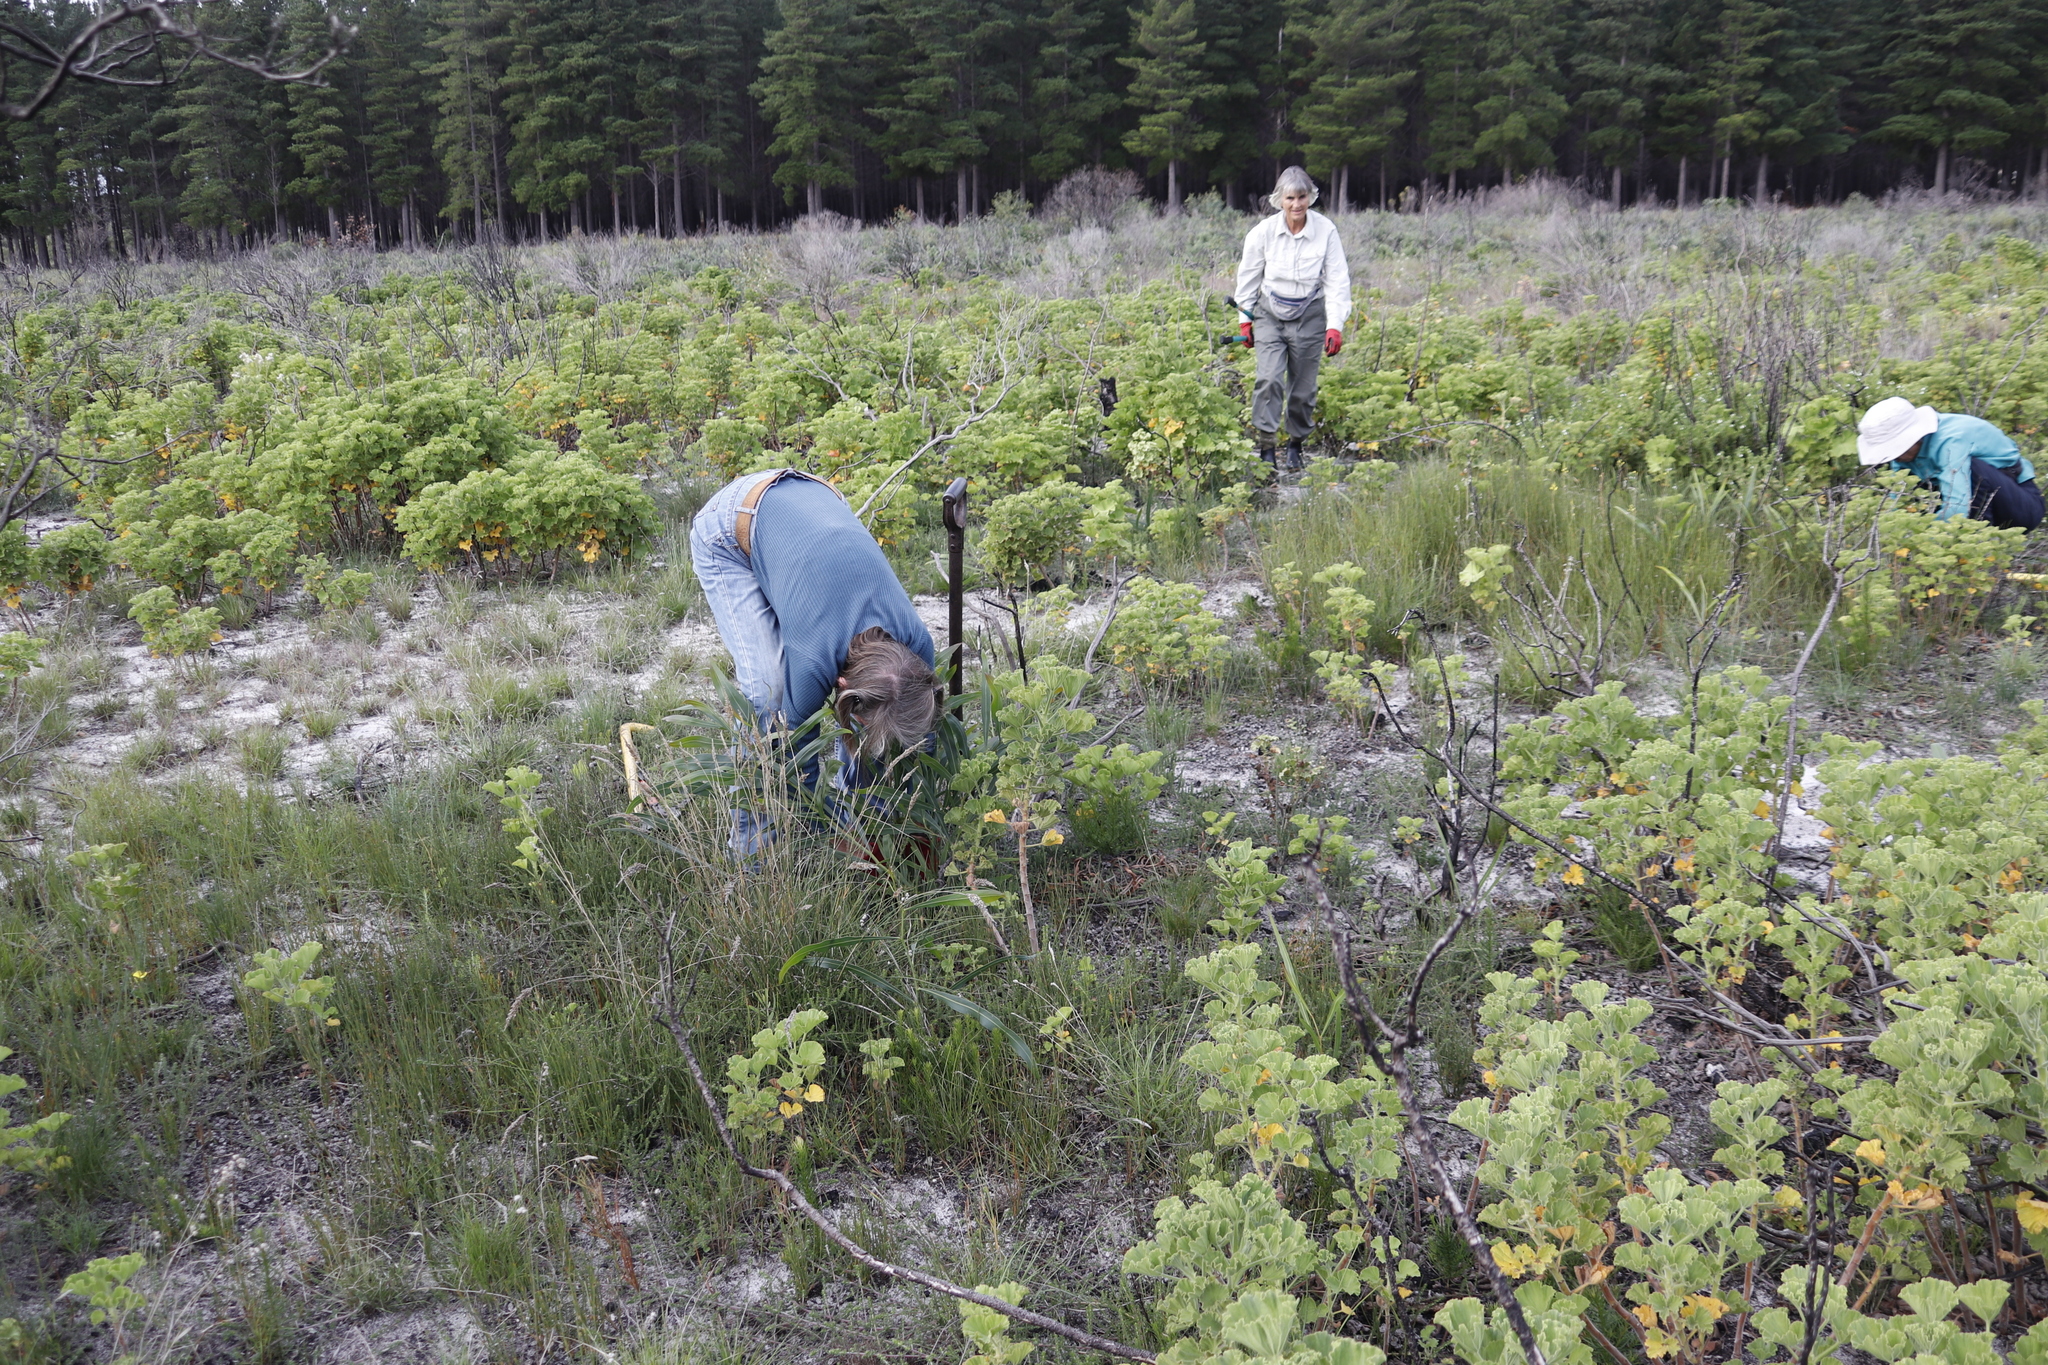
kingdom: Plantae
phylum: Tracheophyta
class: Magnoliopsida
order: Geraniales
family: Geraniaceae
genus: Pelargonium
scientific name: Pelargonium cucullatum
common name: Tree pelargonium
